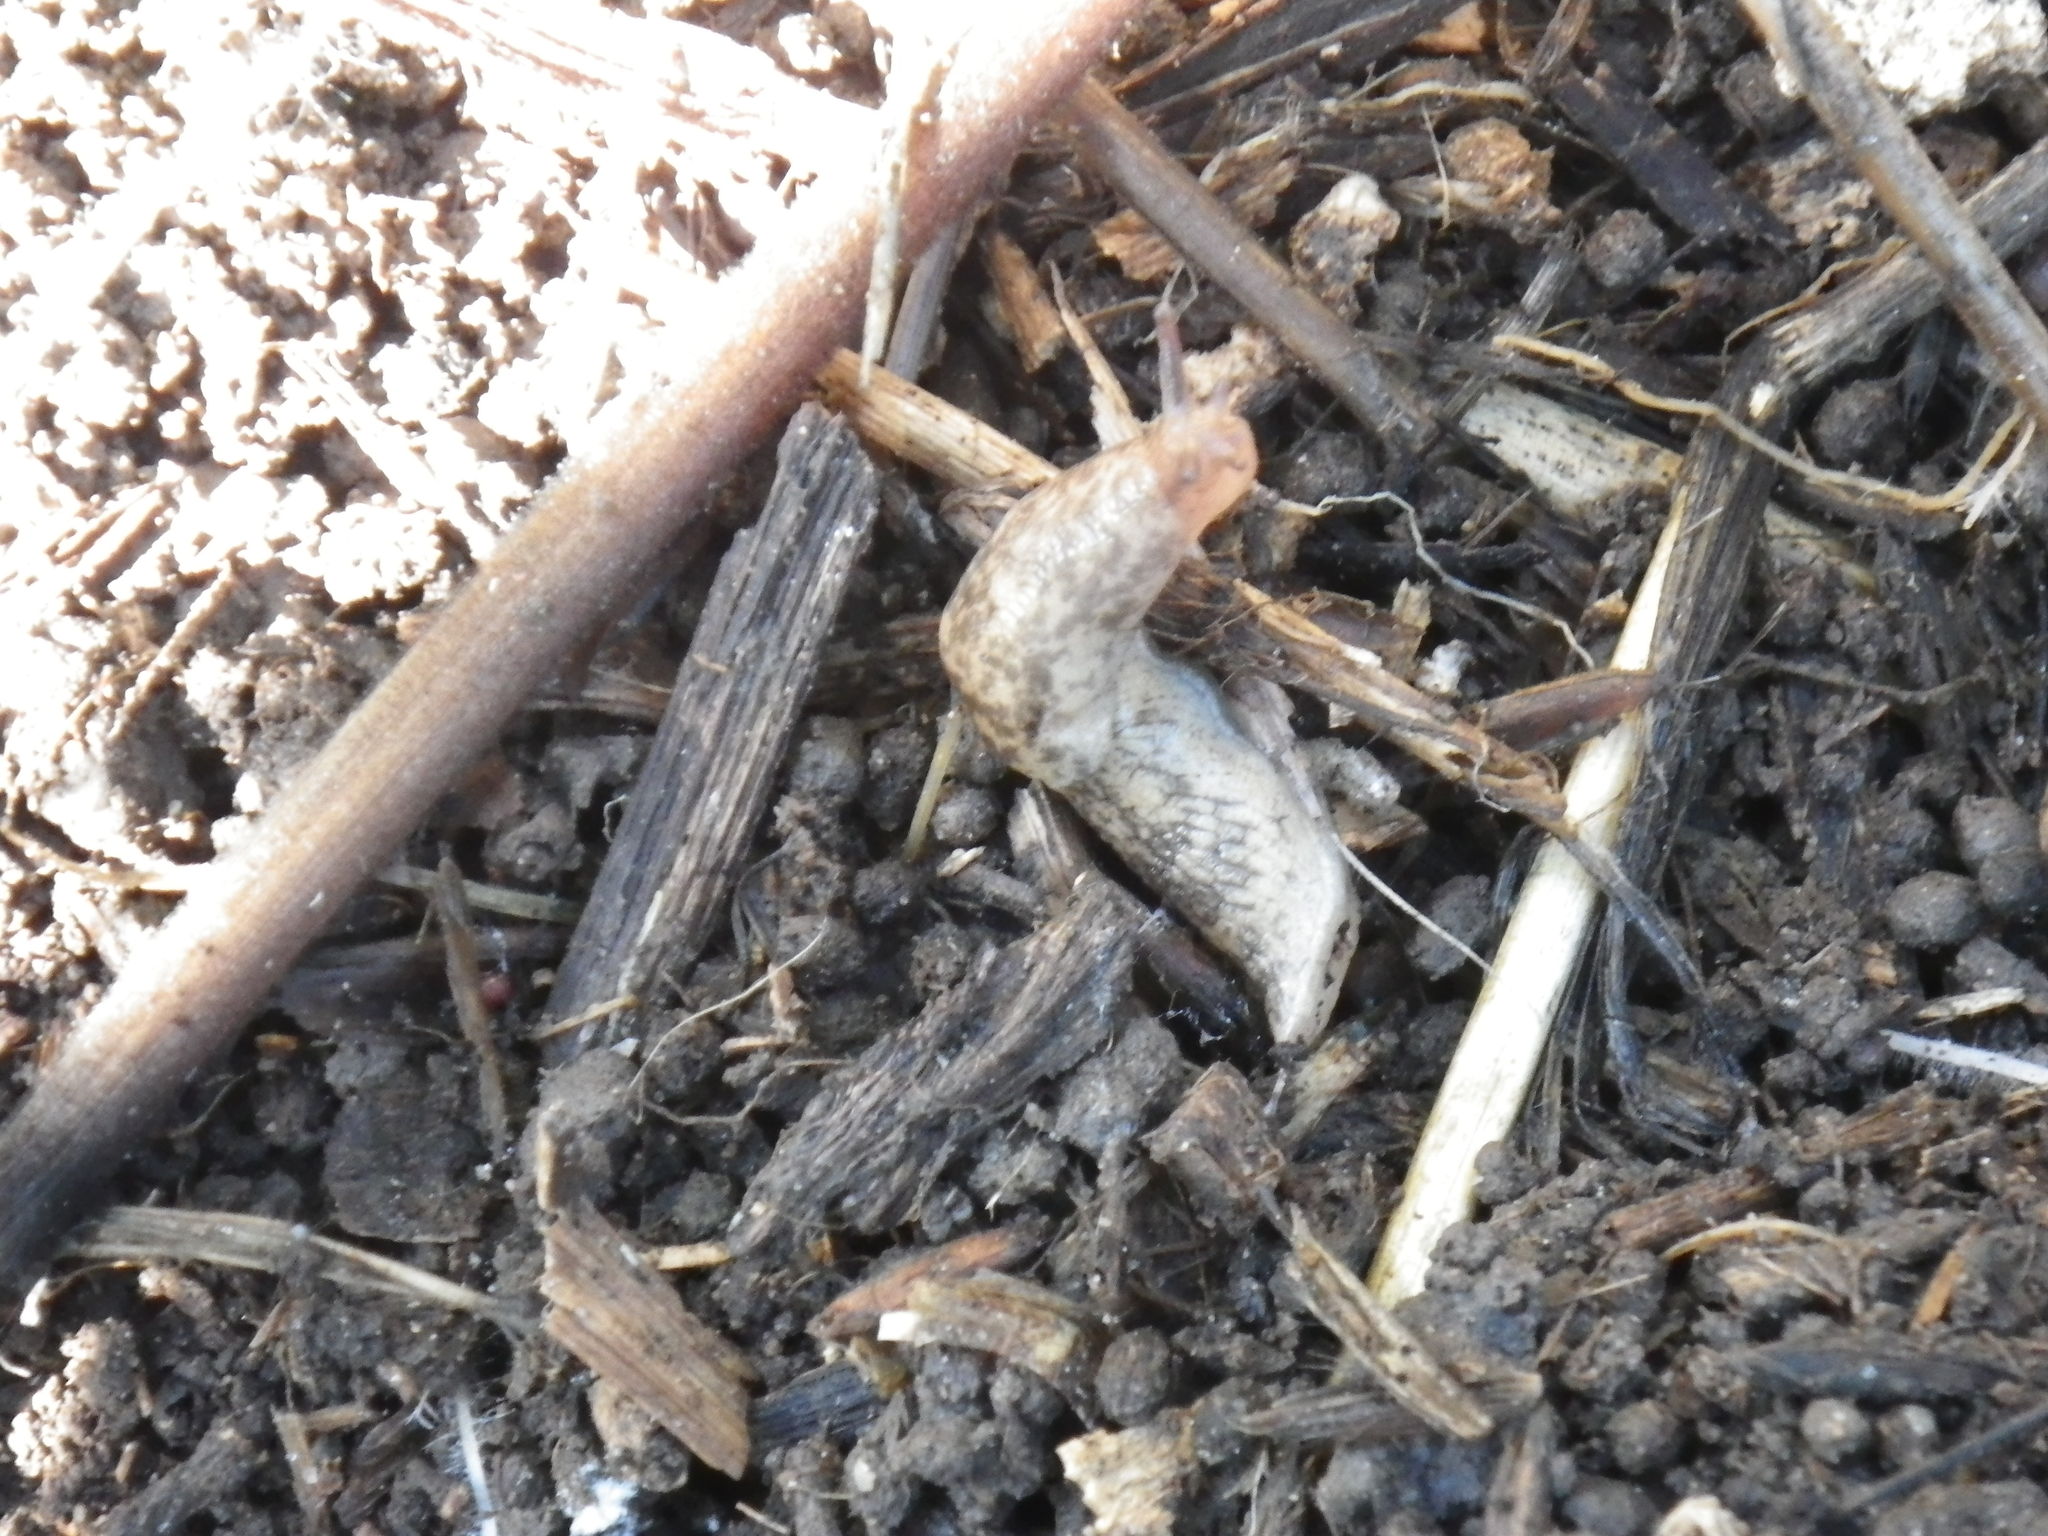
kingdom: Animalia
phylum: Mollusca
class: Gastropoda
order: Stylommatophora
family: Agriolimacidae
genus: Deroceras
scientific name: Deroceras reticulatum
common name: Gray field slug
